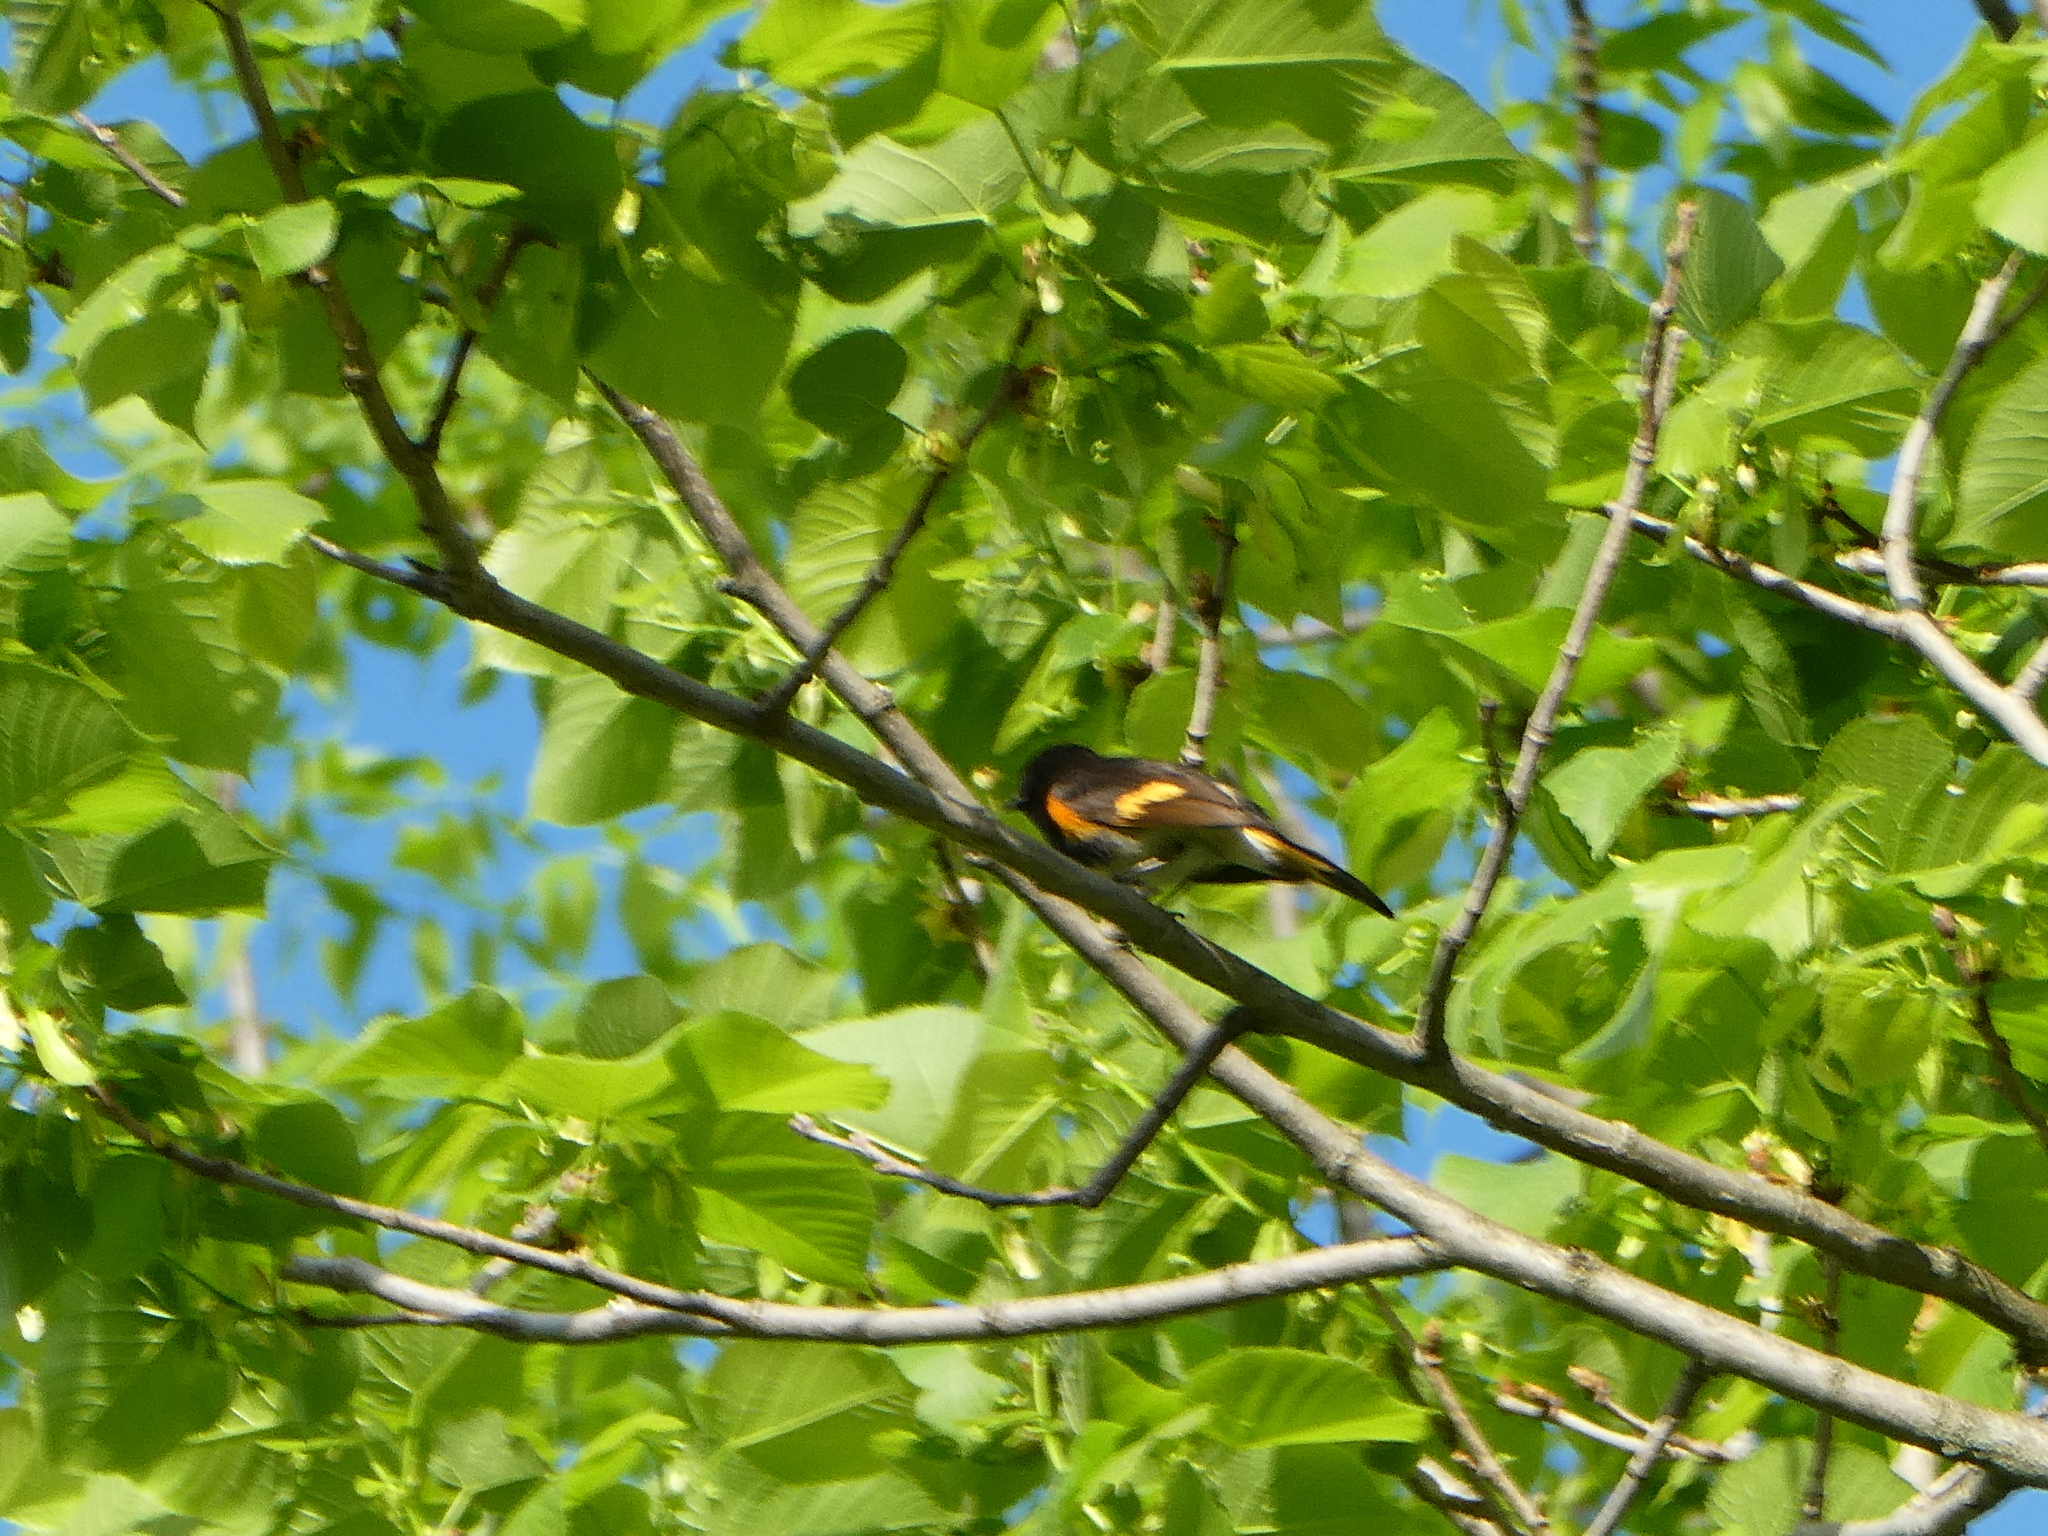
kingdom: Animalia
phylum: Chordata
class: Aves
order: Passeriformes
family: Parulidae
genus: Setophaga
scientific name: Setophaga ruticilla
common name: American redstart
